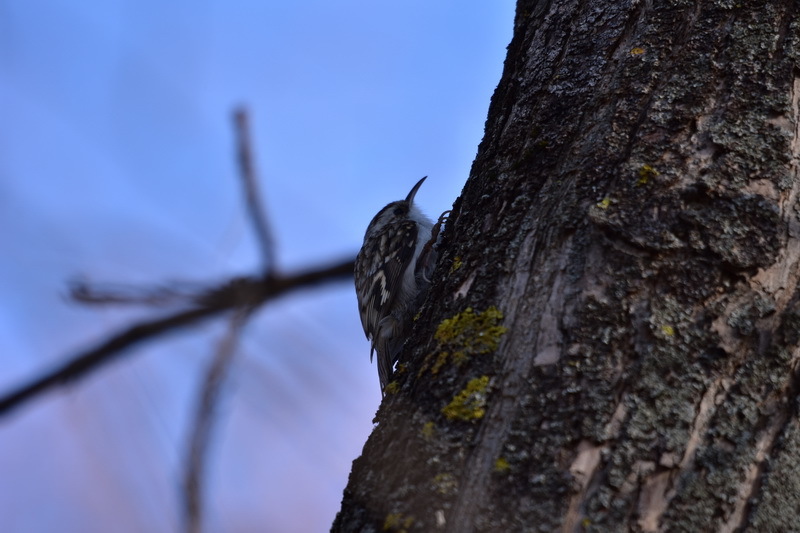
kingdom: Animalia
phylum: Chordata
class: Aves
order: Passeriformes
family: Certhiidae
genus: Certhia
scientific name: Certhia familiaris
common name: Eurasian treecreeper
